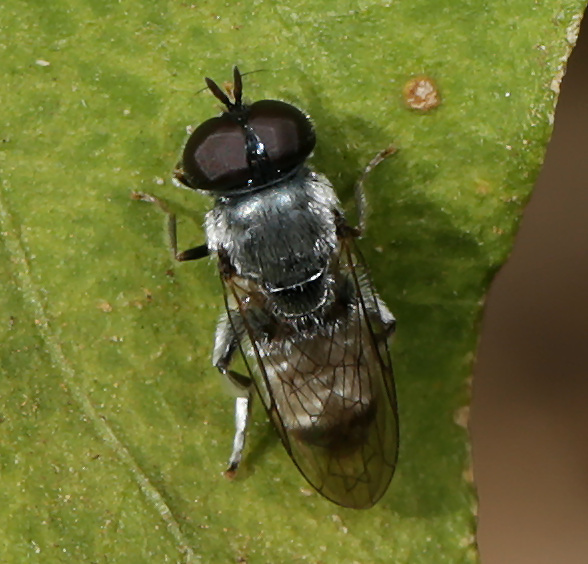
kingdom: Animalia
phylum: Arthropoda
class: Insecta
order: Diptera
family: Syrphidae
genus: Eumerus
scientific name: Eumerus paulae
